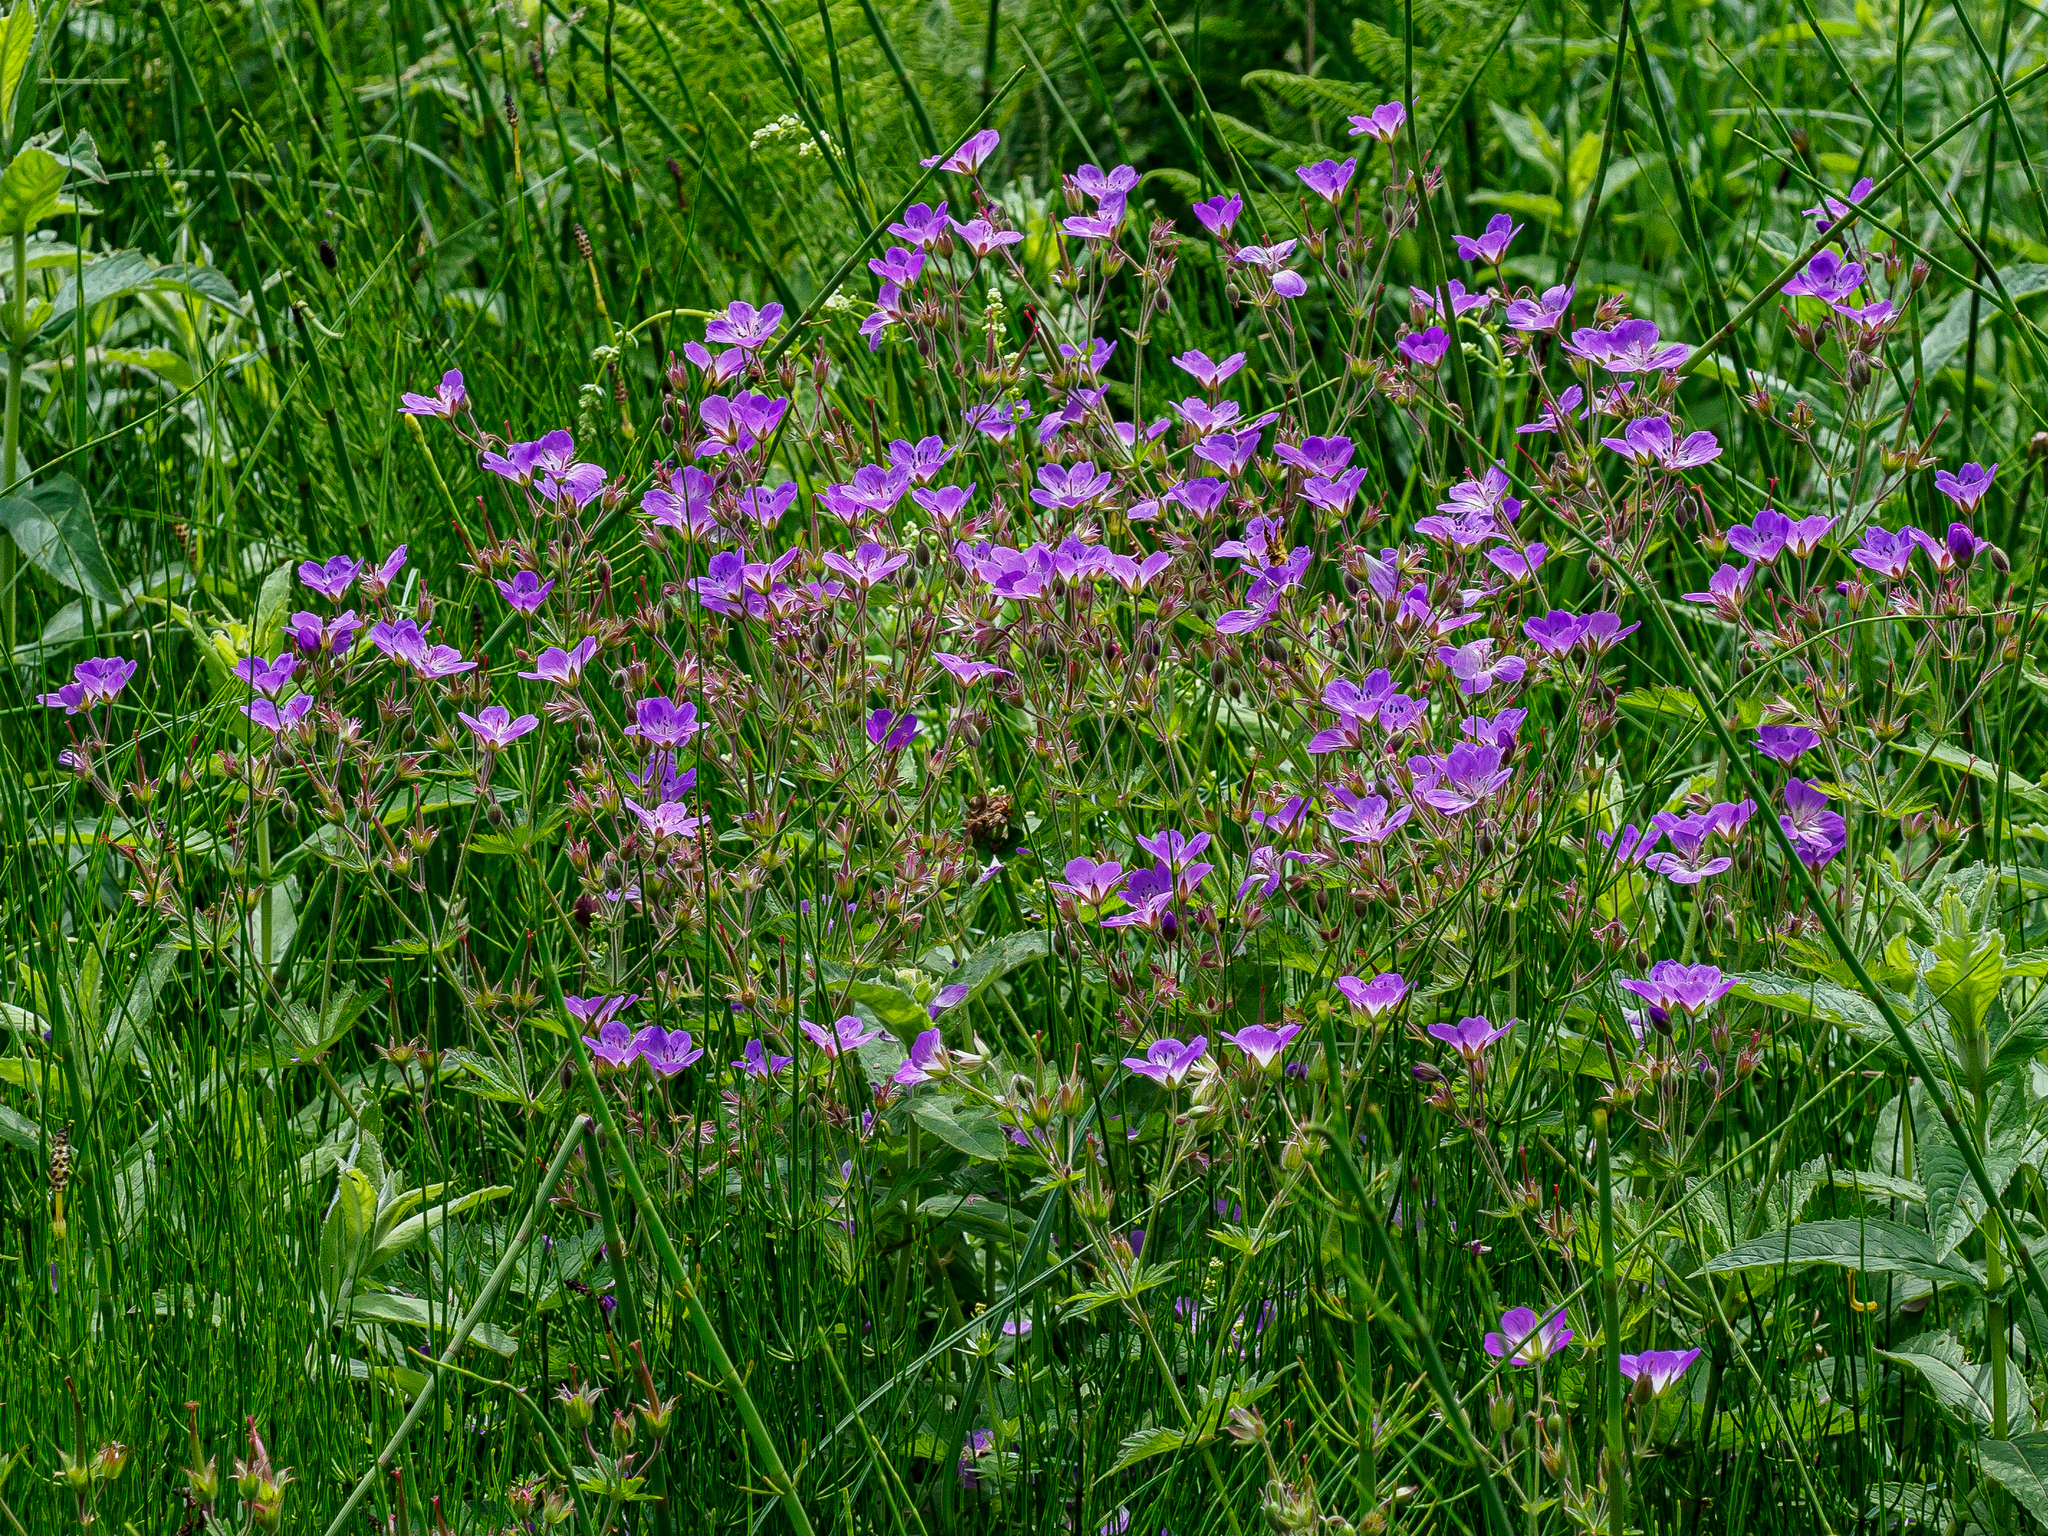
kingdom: Plantae
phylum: Tracheophyta
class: Magnoliopsida
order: Geraniales
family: Geraniaceae
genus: Geranium
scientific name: Geranium sylvaticum
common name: Wood crane's-bill
